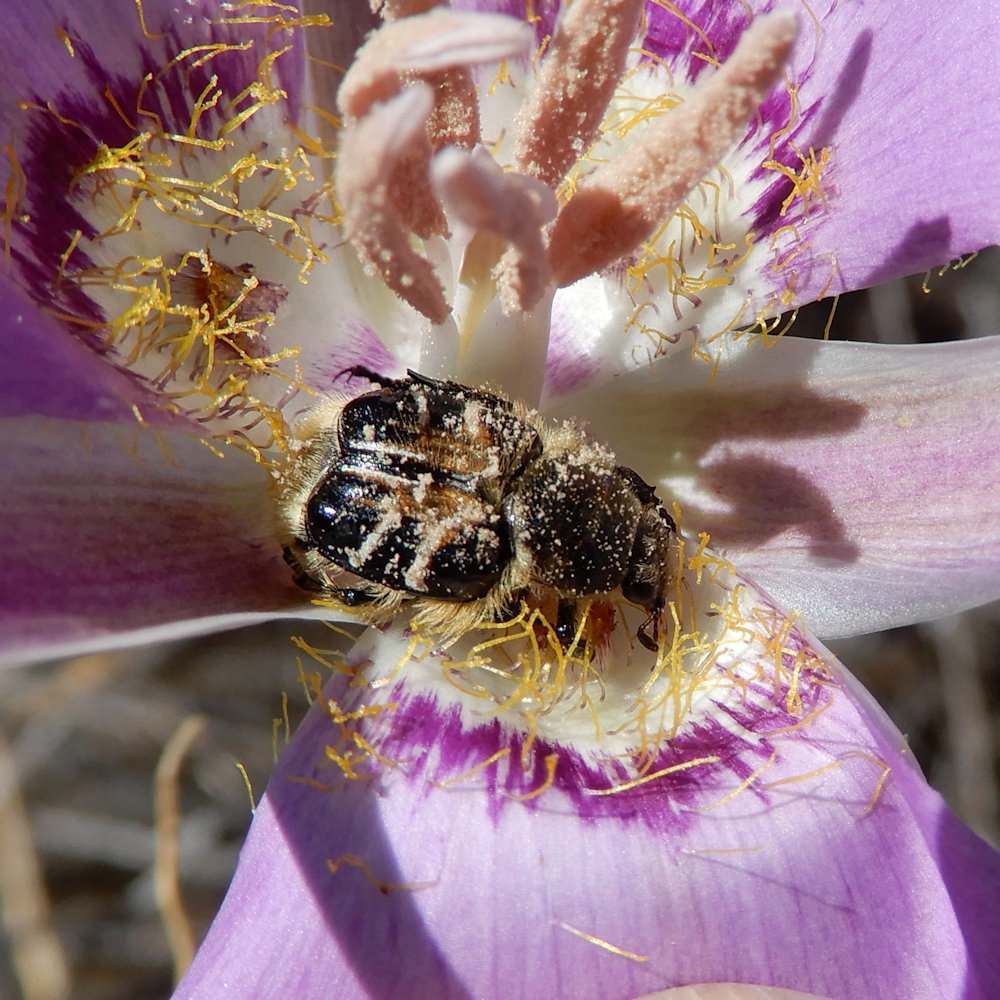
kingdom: Animalia
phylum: Arthropoda
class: Insecta
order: Coleoptera
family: Scarabaeidae
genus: Trichiotinus
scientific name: Trichiotinus assimilis
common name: Bee-mimic beetle
